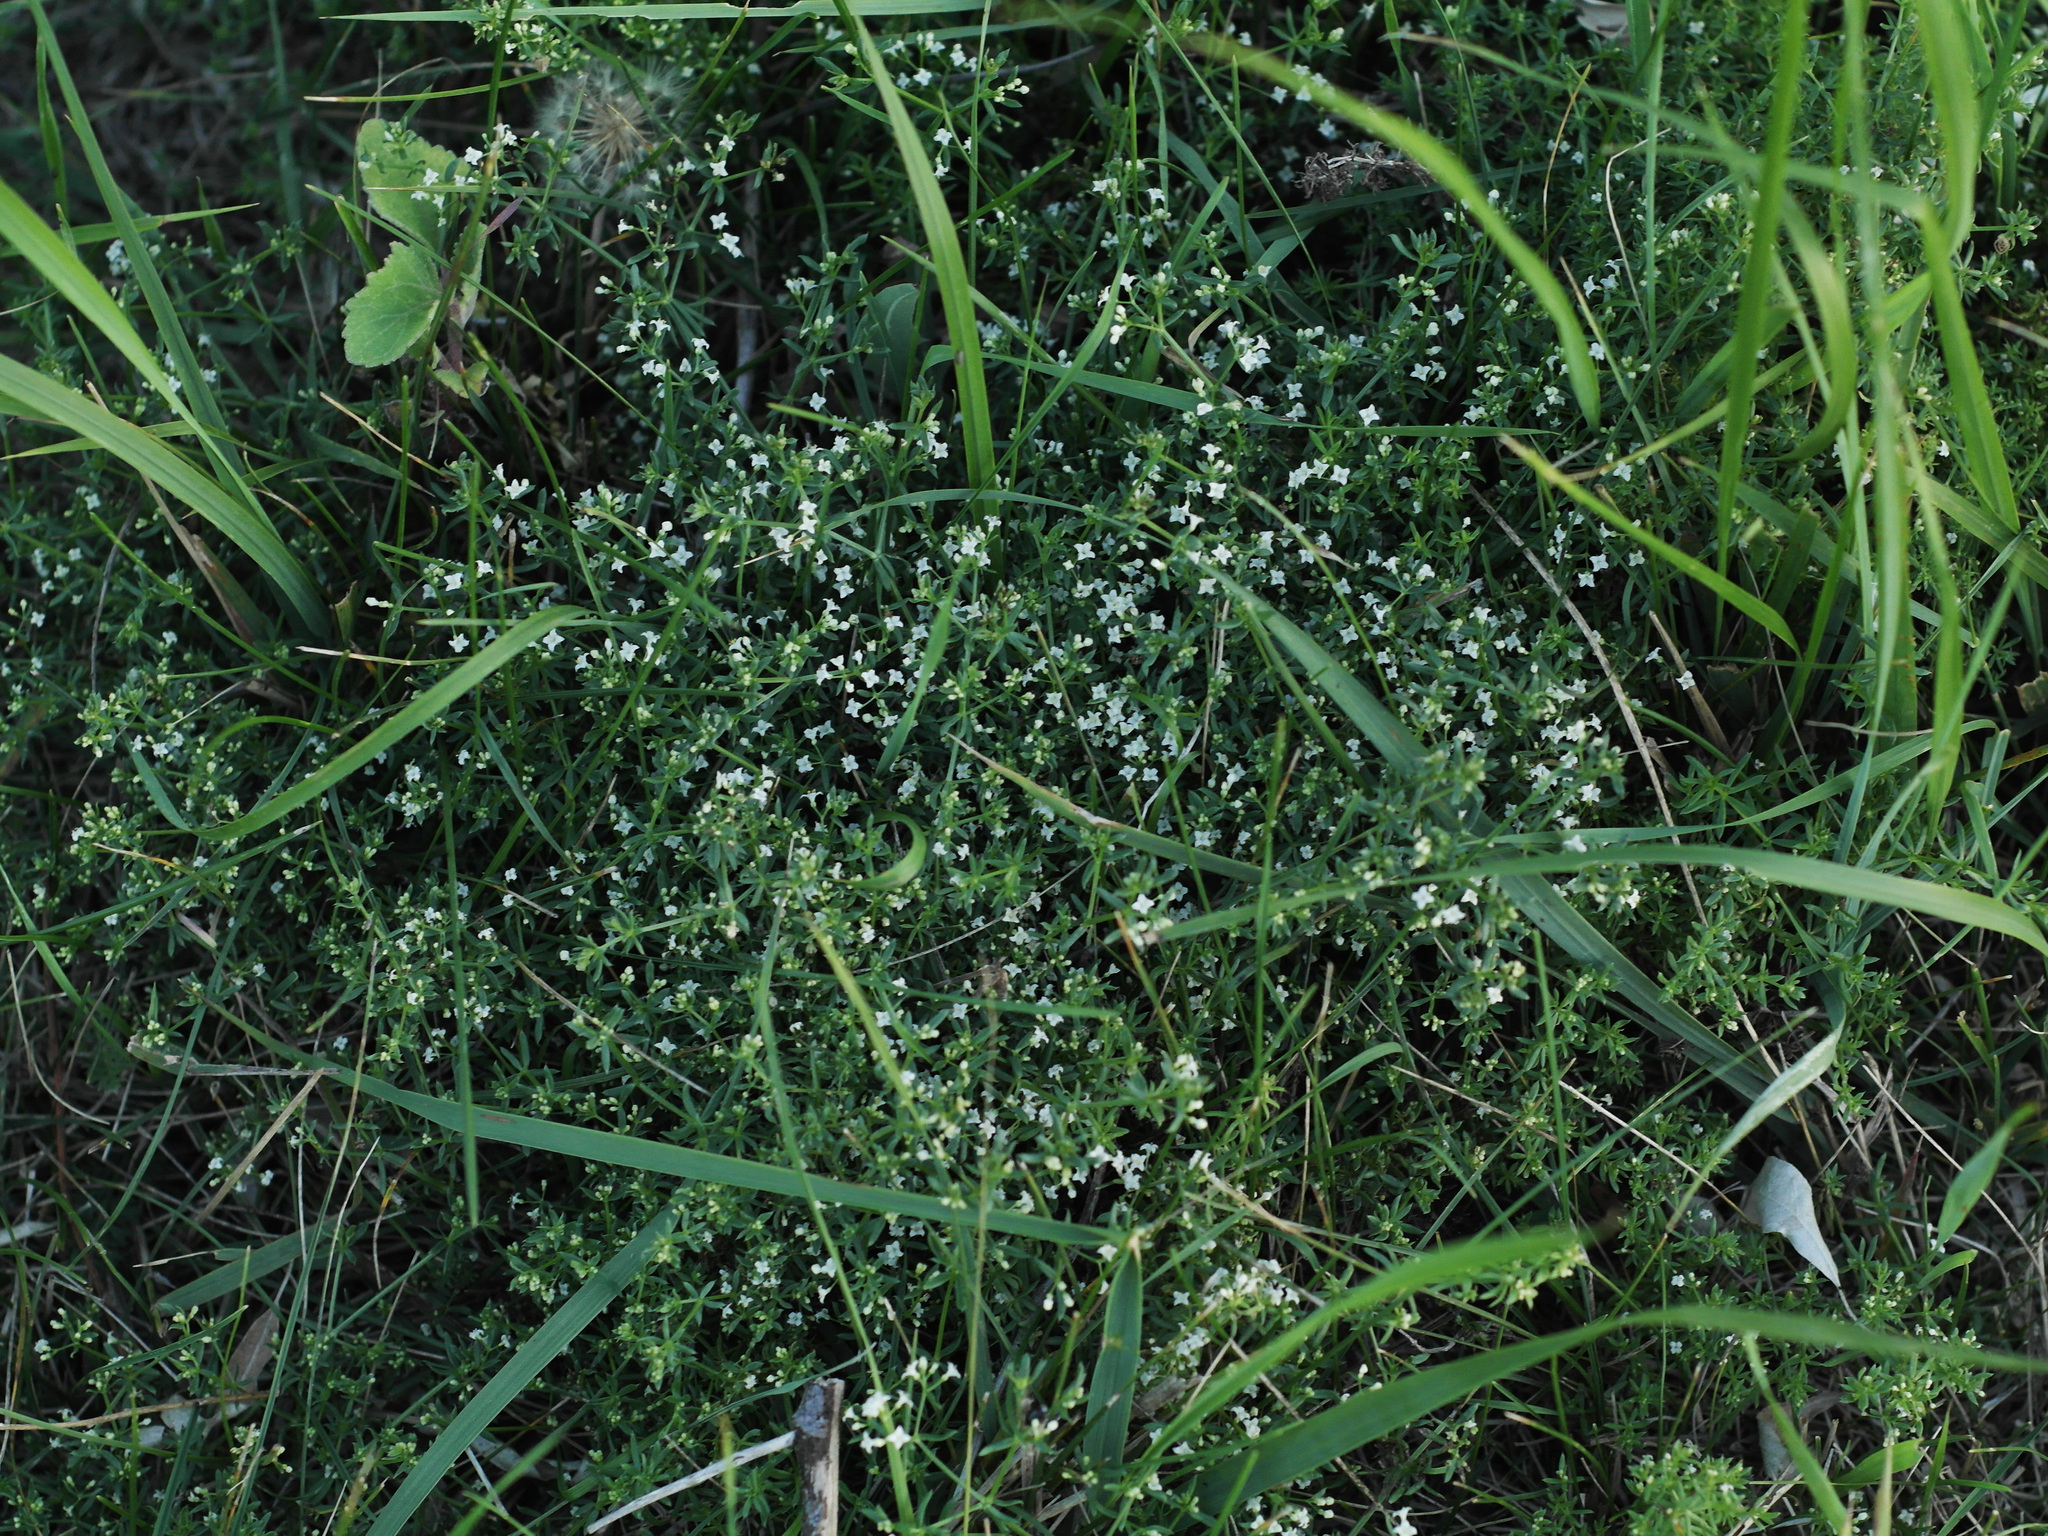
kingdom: Plantae
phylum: Tracheophyta
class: Magnoliopsida
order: Gentianales
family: Rubiaceae
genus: Galium
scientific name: Galium humifusum
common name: Spreading bedstraw
